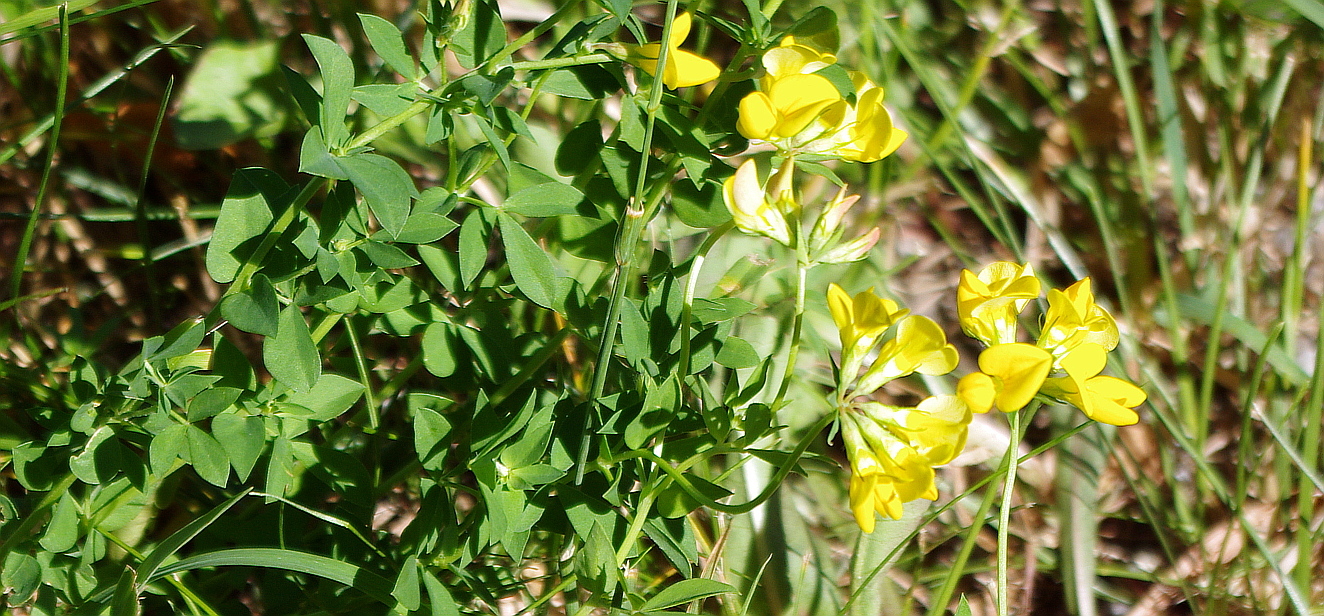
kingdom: Plantae
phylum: Tracheophyta
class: Magnoliopsida
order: Fabales
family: Fabaceae
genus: Lotus
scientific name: Lotus corniculatus
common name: Common bird's-foot-trefoil
